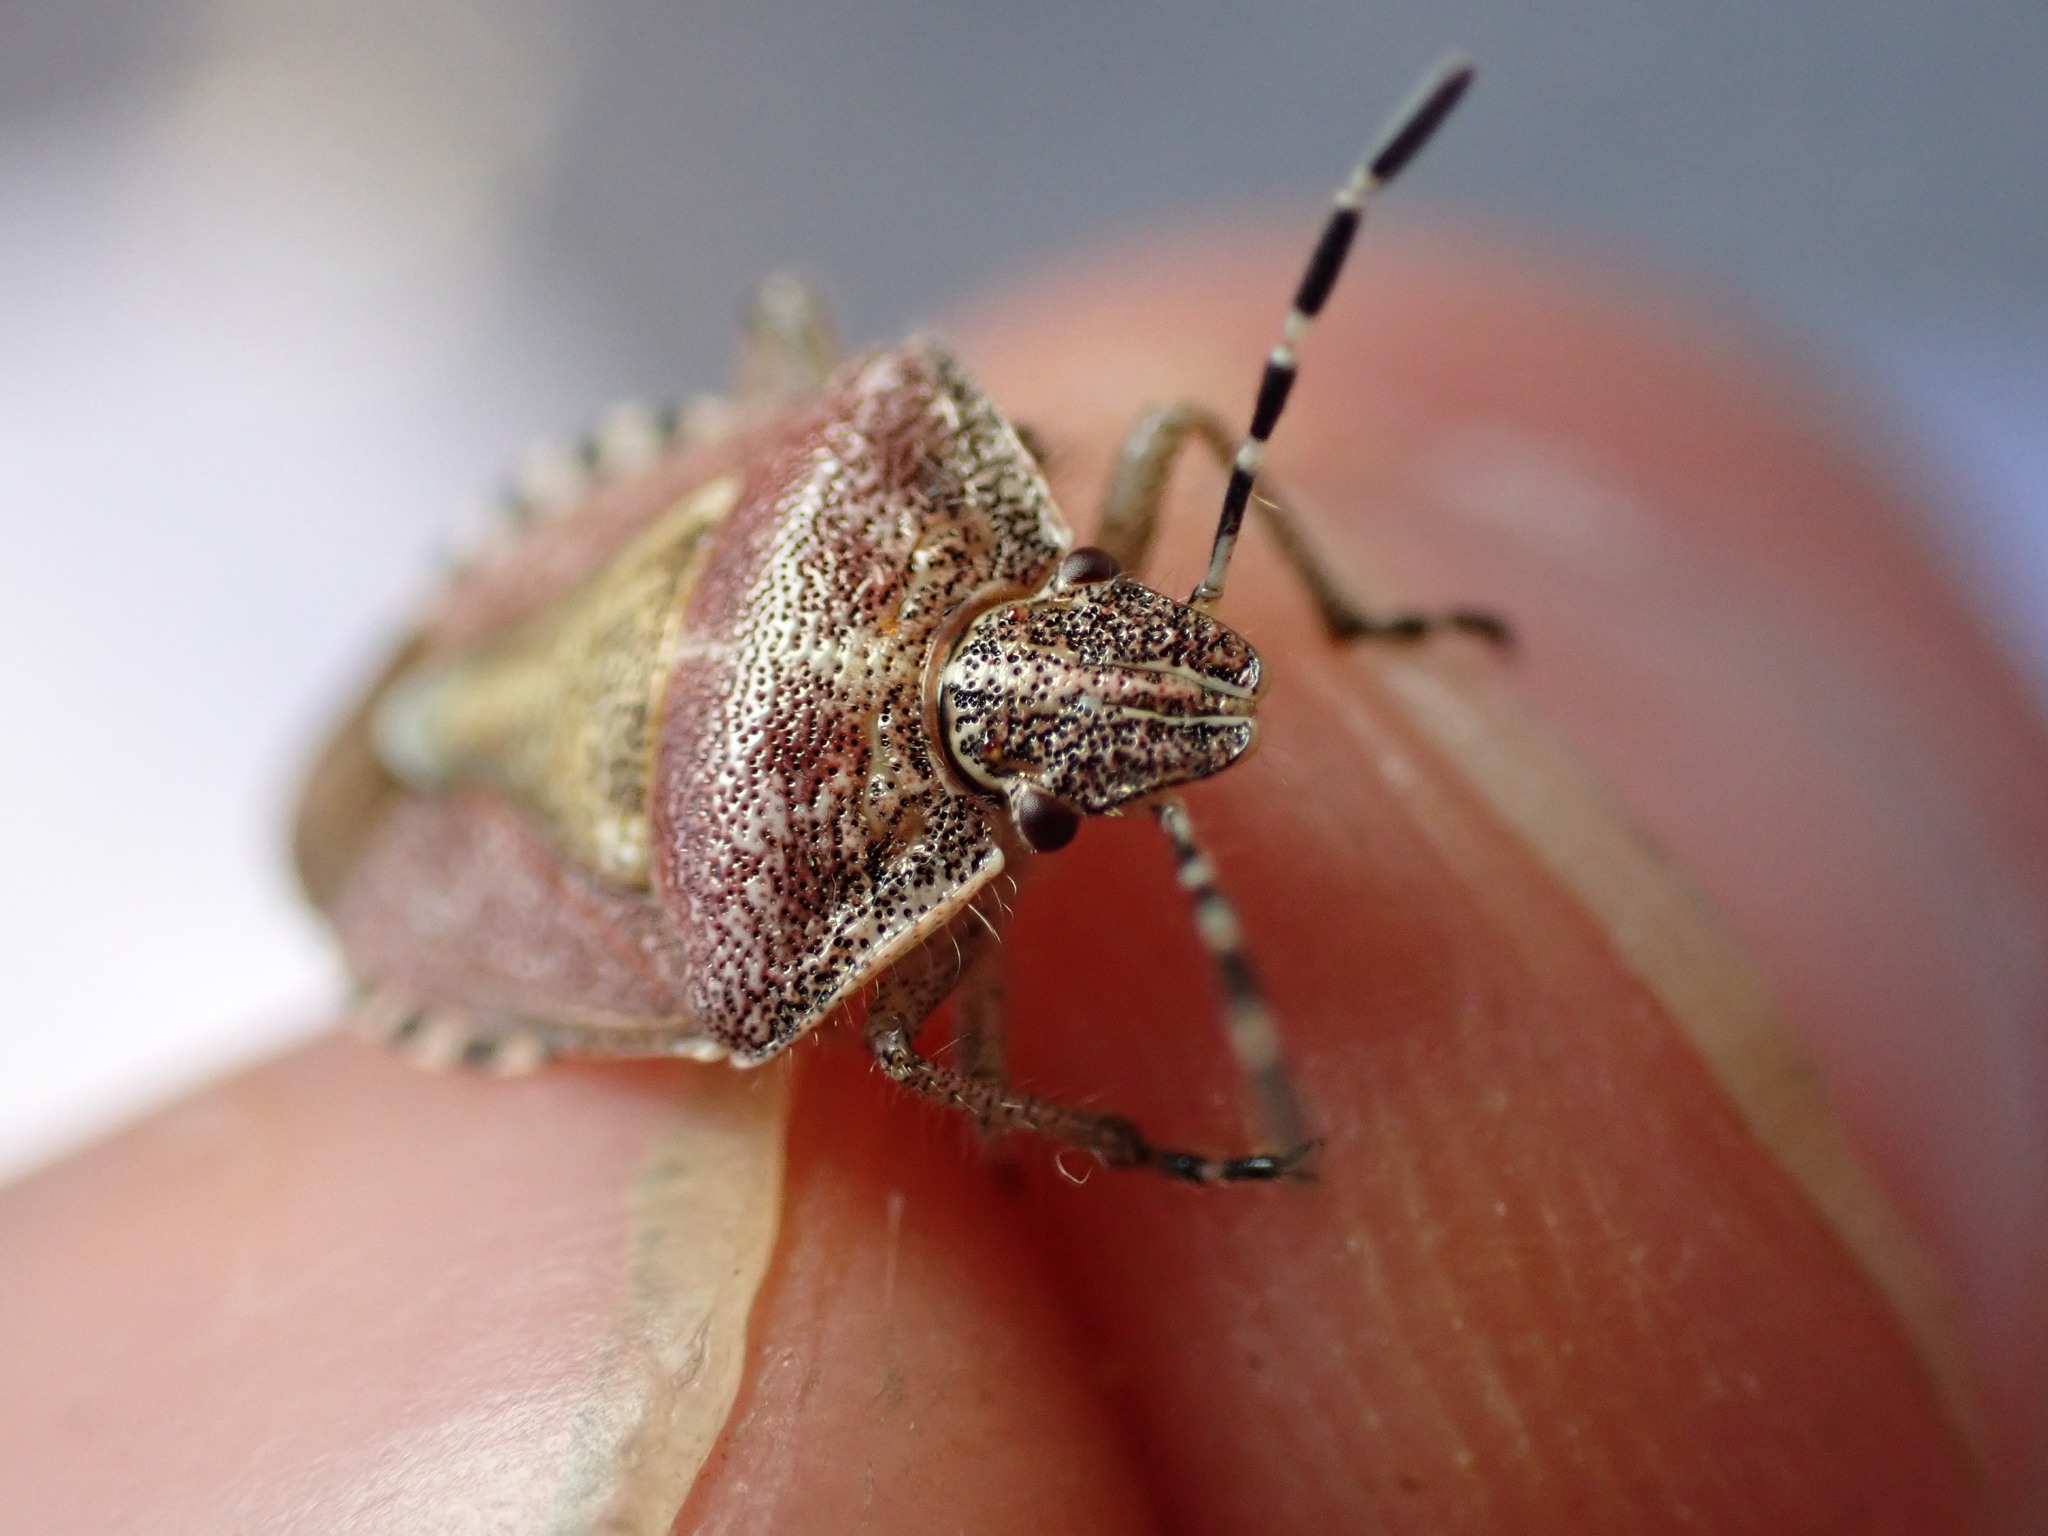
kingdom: Animalia
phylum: Arthropoda
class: Insecta
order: Hemiptera
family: Pentatomidae
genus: Dolycoris
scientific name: Dolycoris baccarum
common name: Sloe bug
